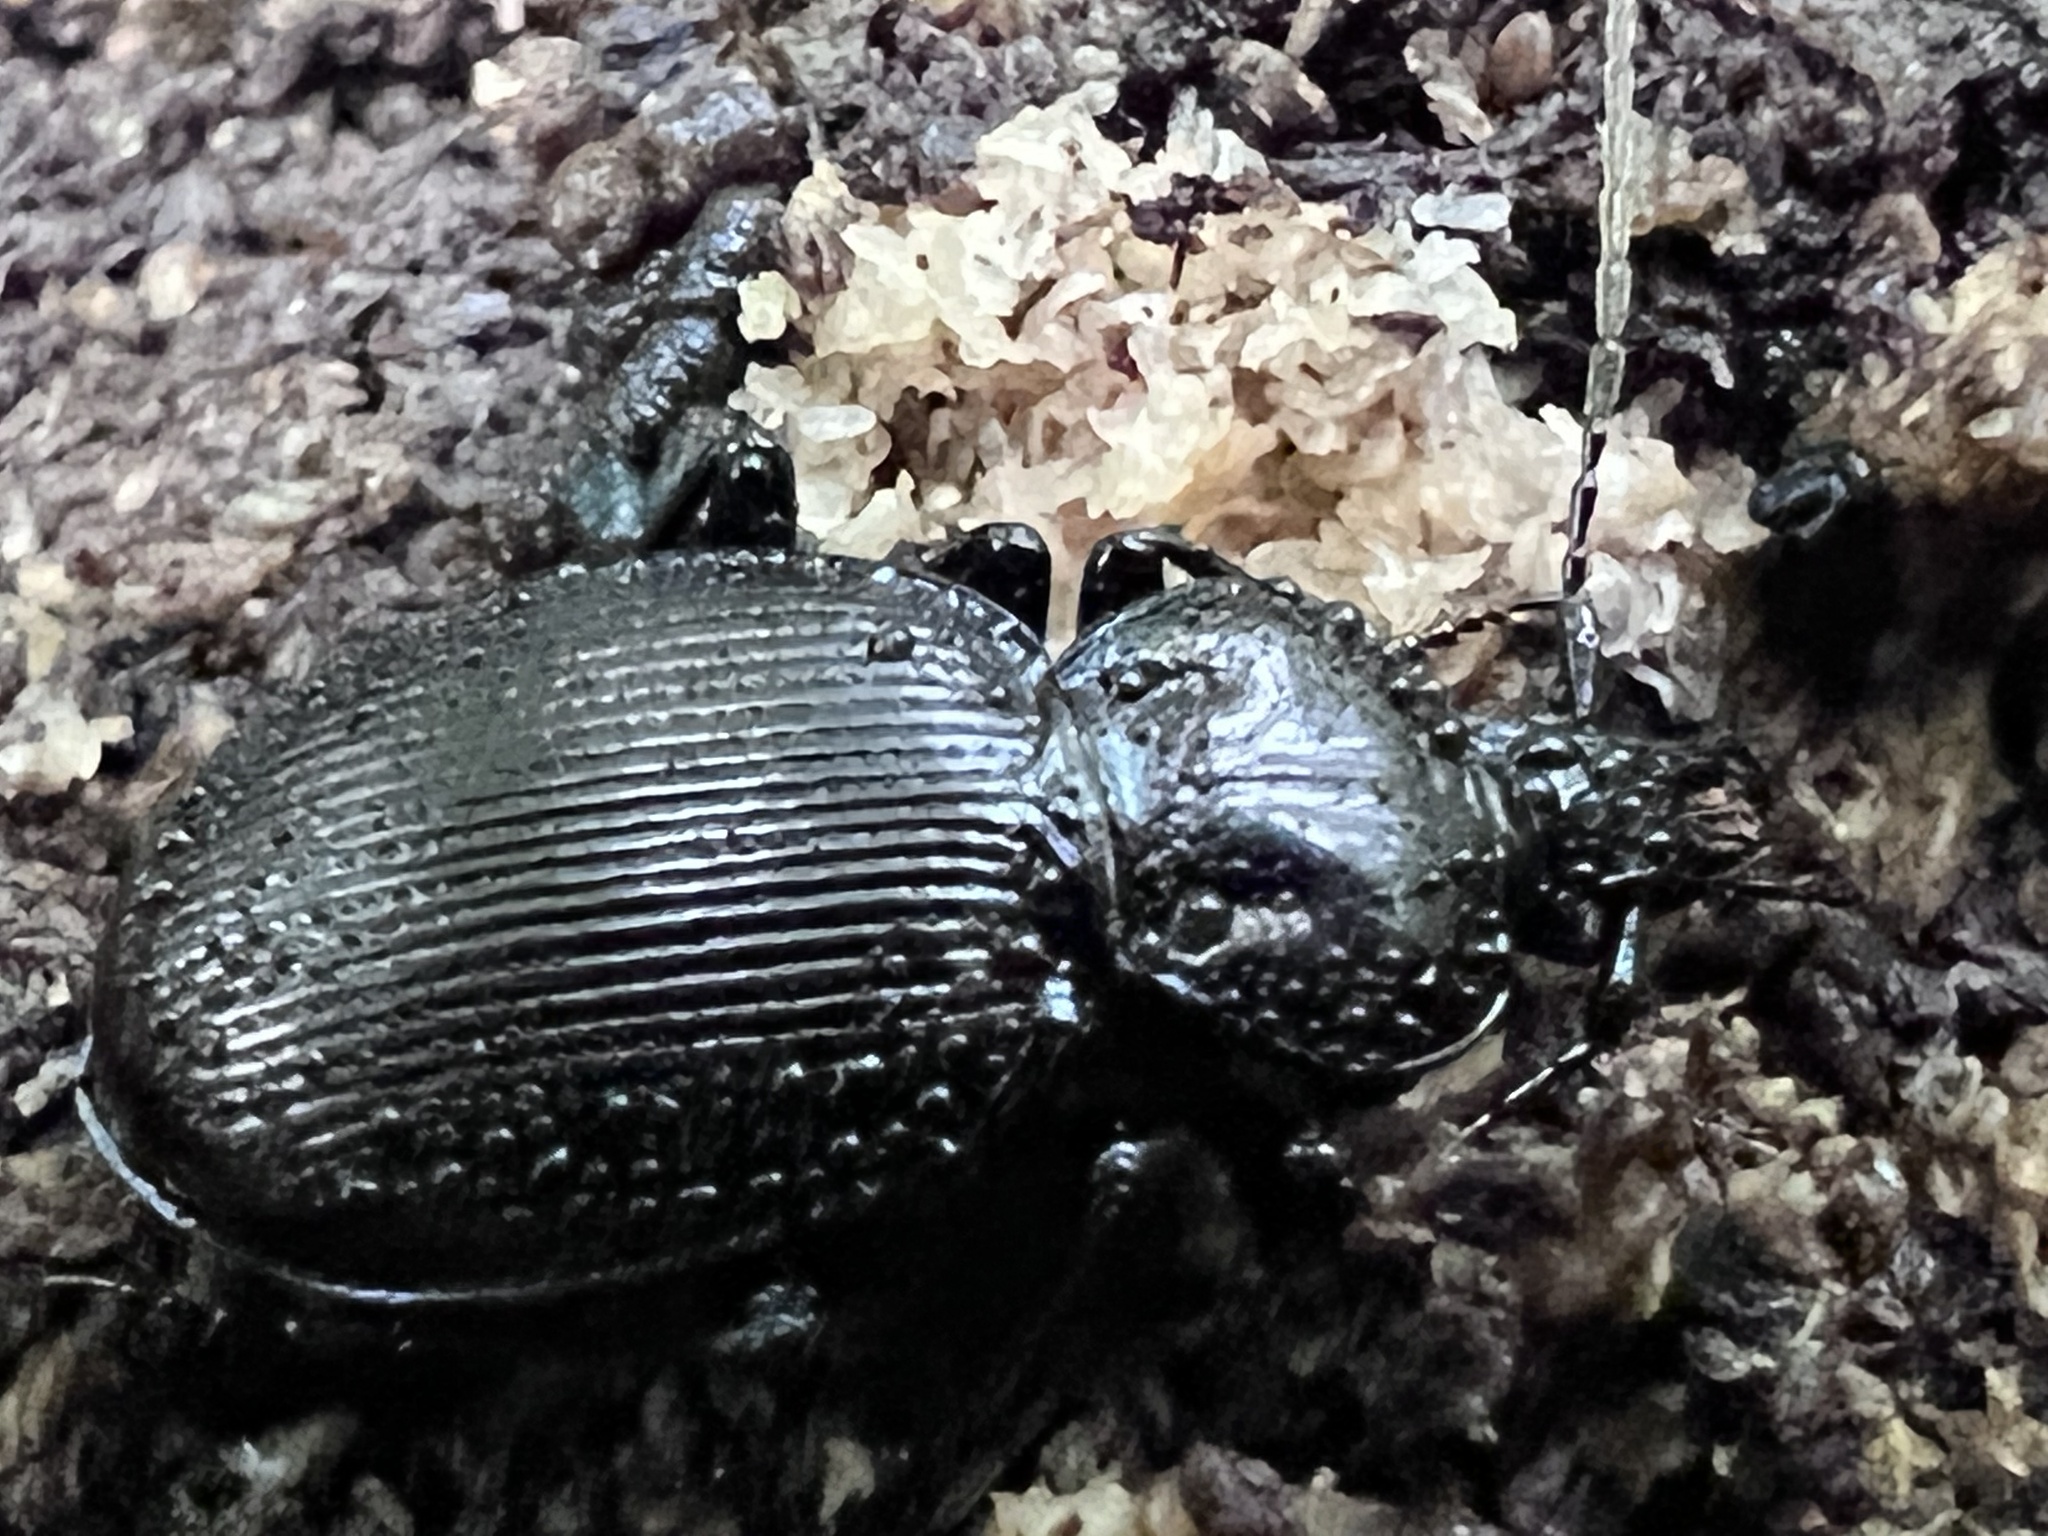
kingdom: Animalia
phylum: Arthropoda
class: Insecta
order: Coleoptera
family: Carabidae
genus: Sphaeroderus
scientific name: Sphaeroderus stenostomus
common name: Small snail-eating ground beetle
